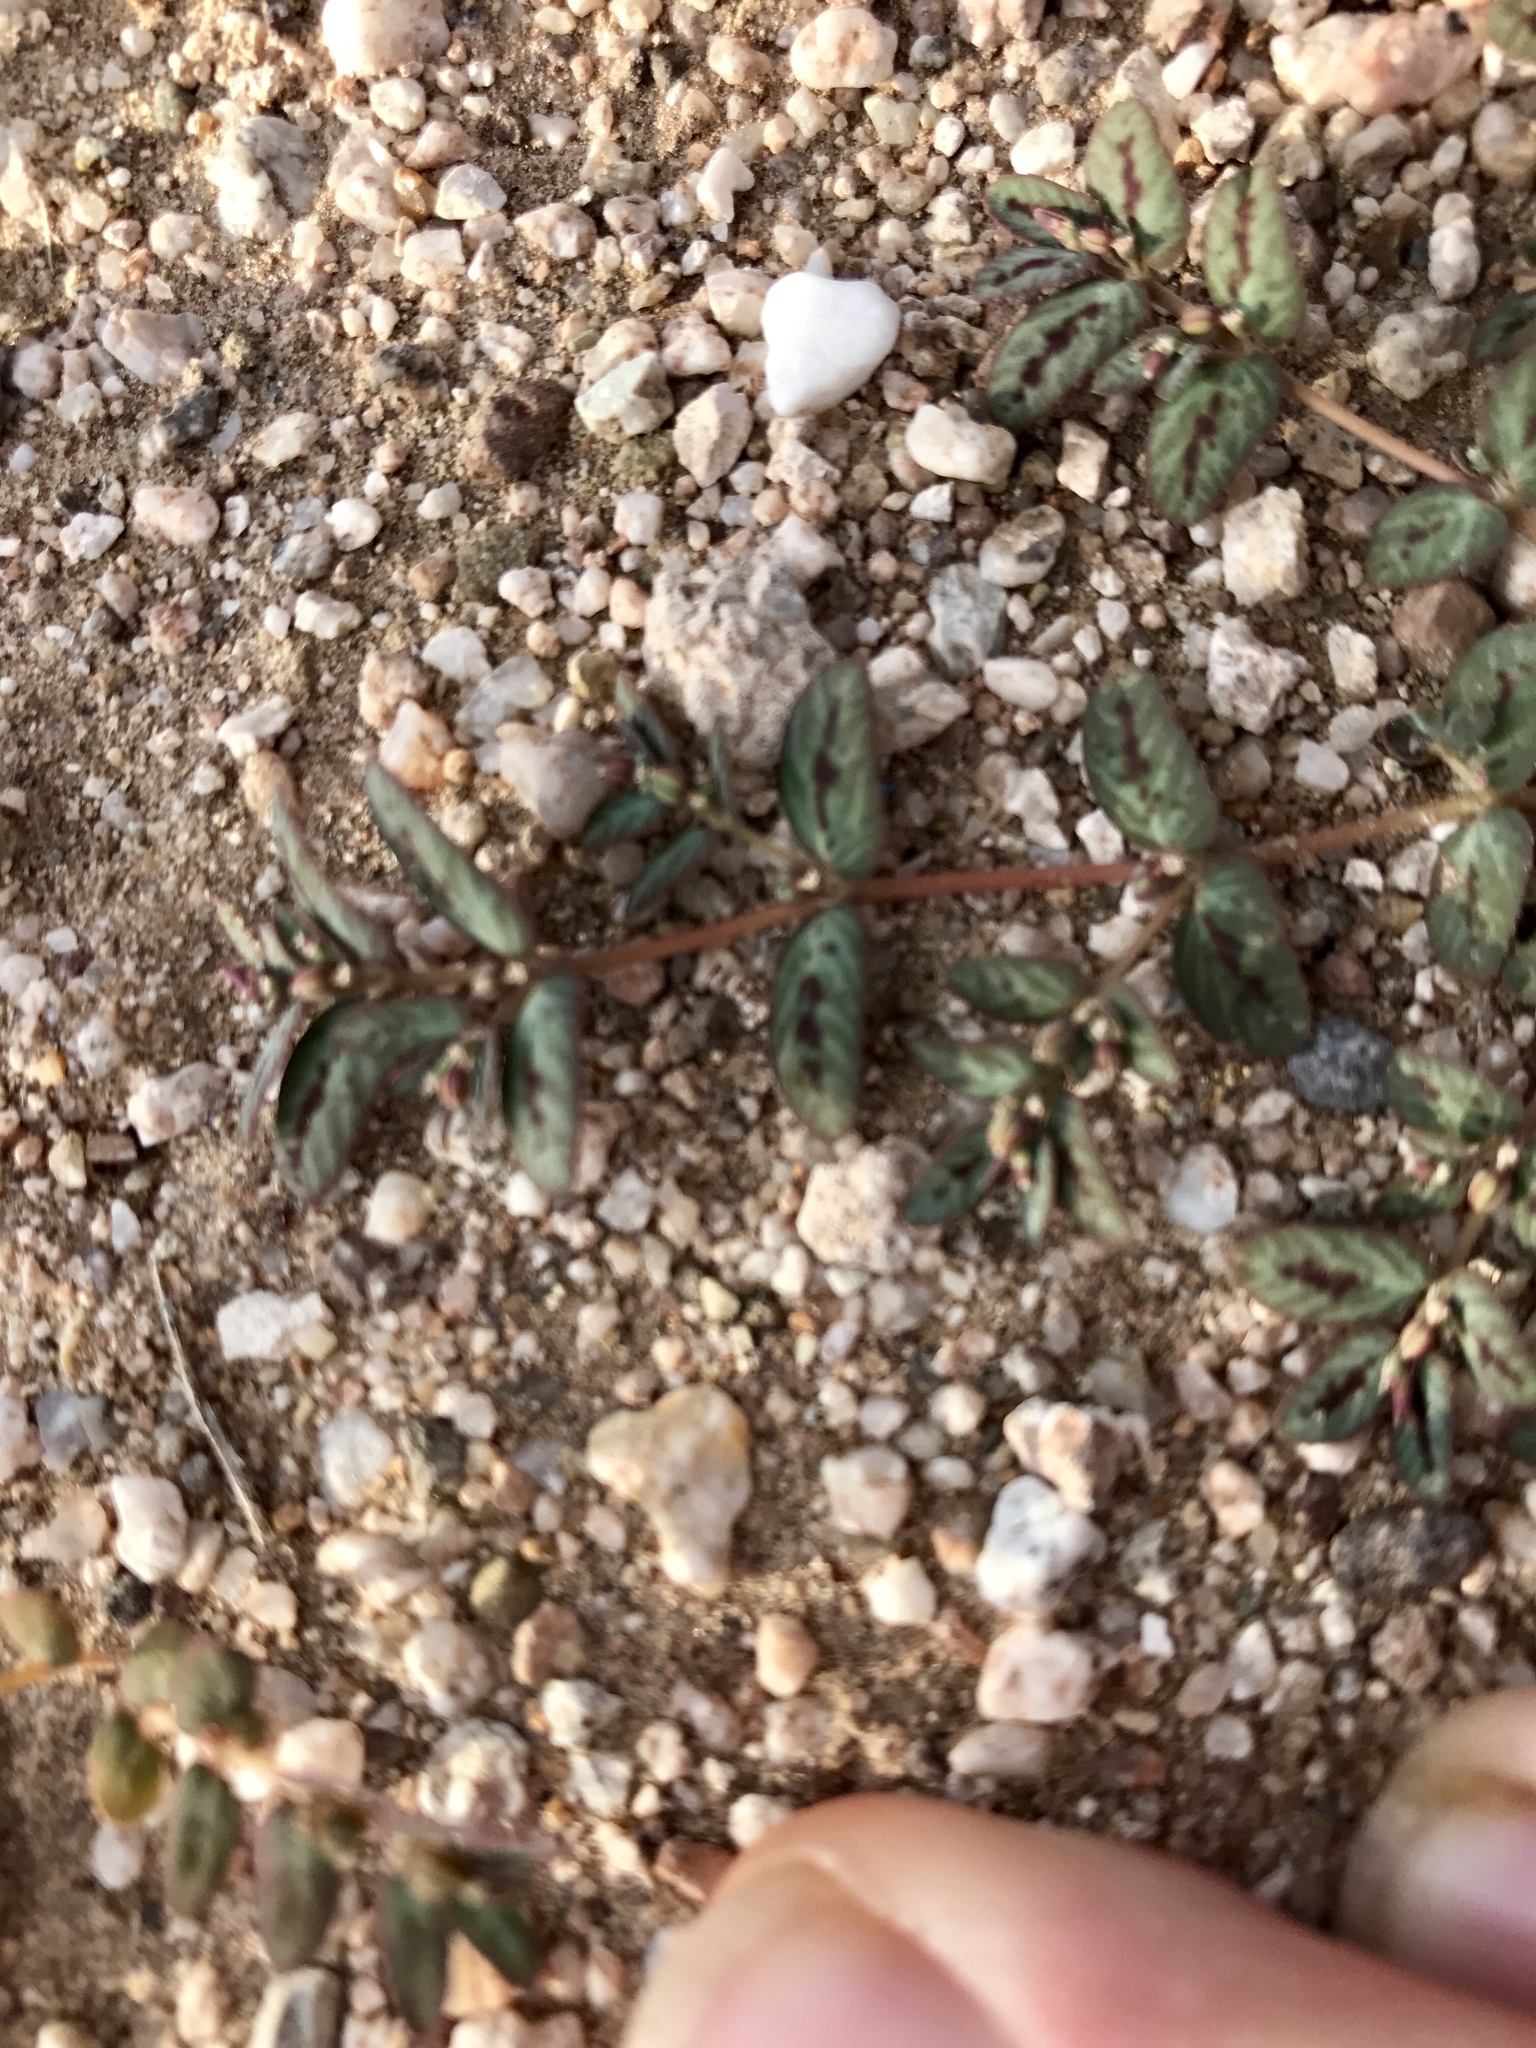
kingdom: Plantae
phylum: Tracheophyta
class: Magnoliopsida
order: Malpighiales
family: Euphorbiaceae
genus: Euphorbia
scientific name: Euphorbia abramsiana
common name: Abram's spurge
